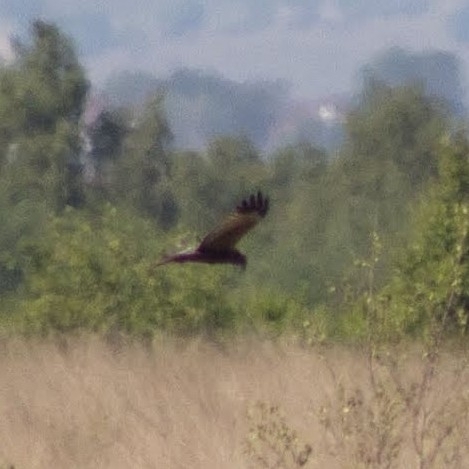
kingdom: Animalia
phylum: Chordata
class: Aves
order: Accipitriformes
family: Accipitridae
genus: Circus
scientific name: Circus aeruginosus
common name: Western marsh harrier
